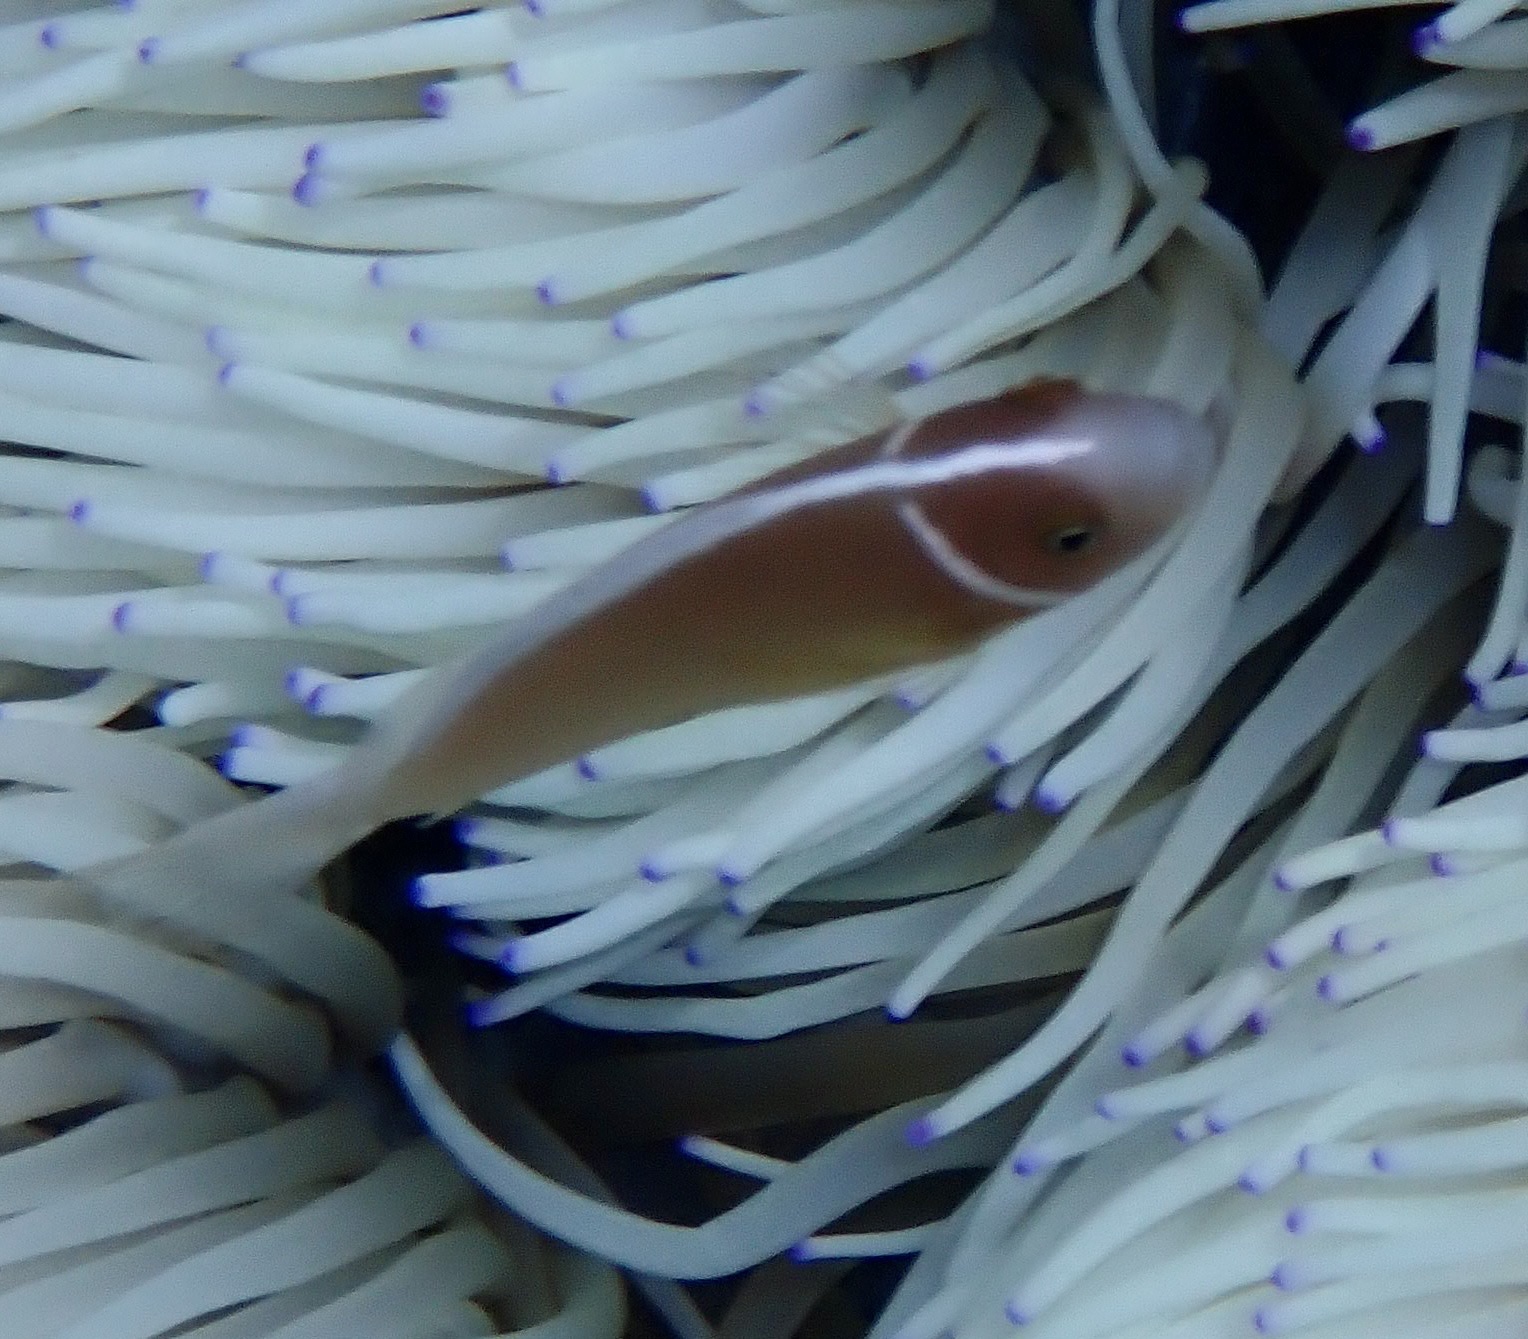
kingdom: Animalia
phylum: Chordata
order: Perciformes
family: Pomacentridae
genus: Amphiprion
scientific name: Amphiprion perideraion
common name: Pink anemonefish
